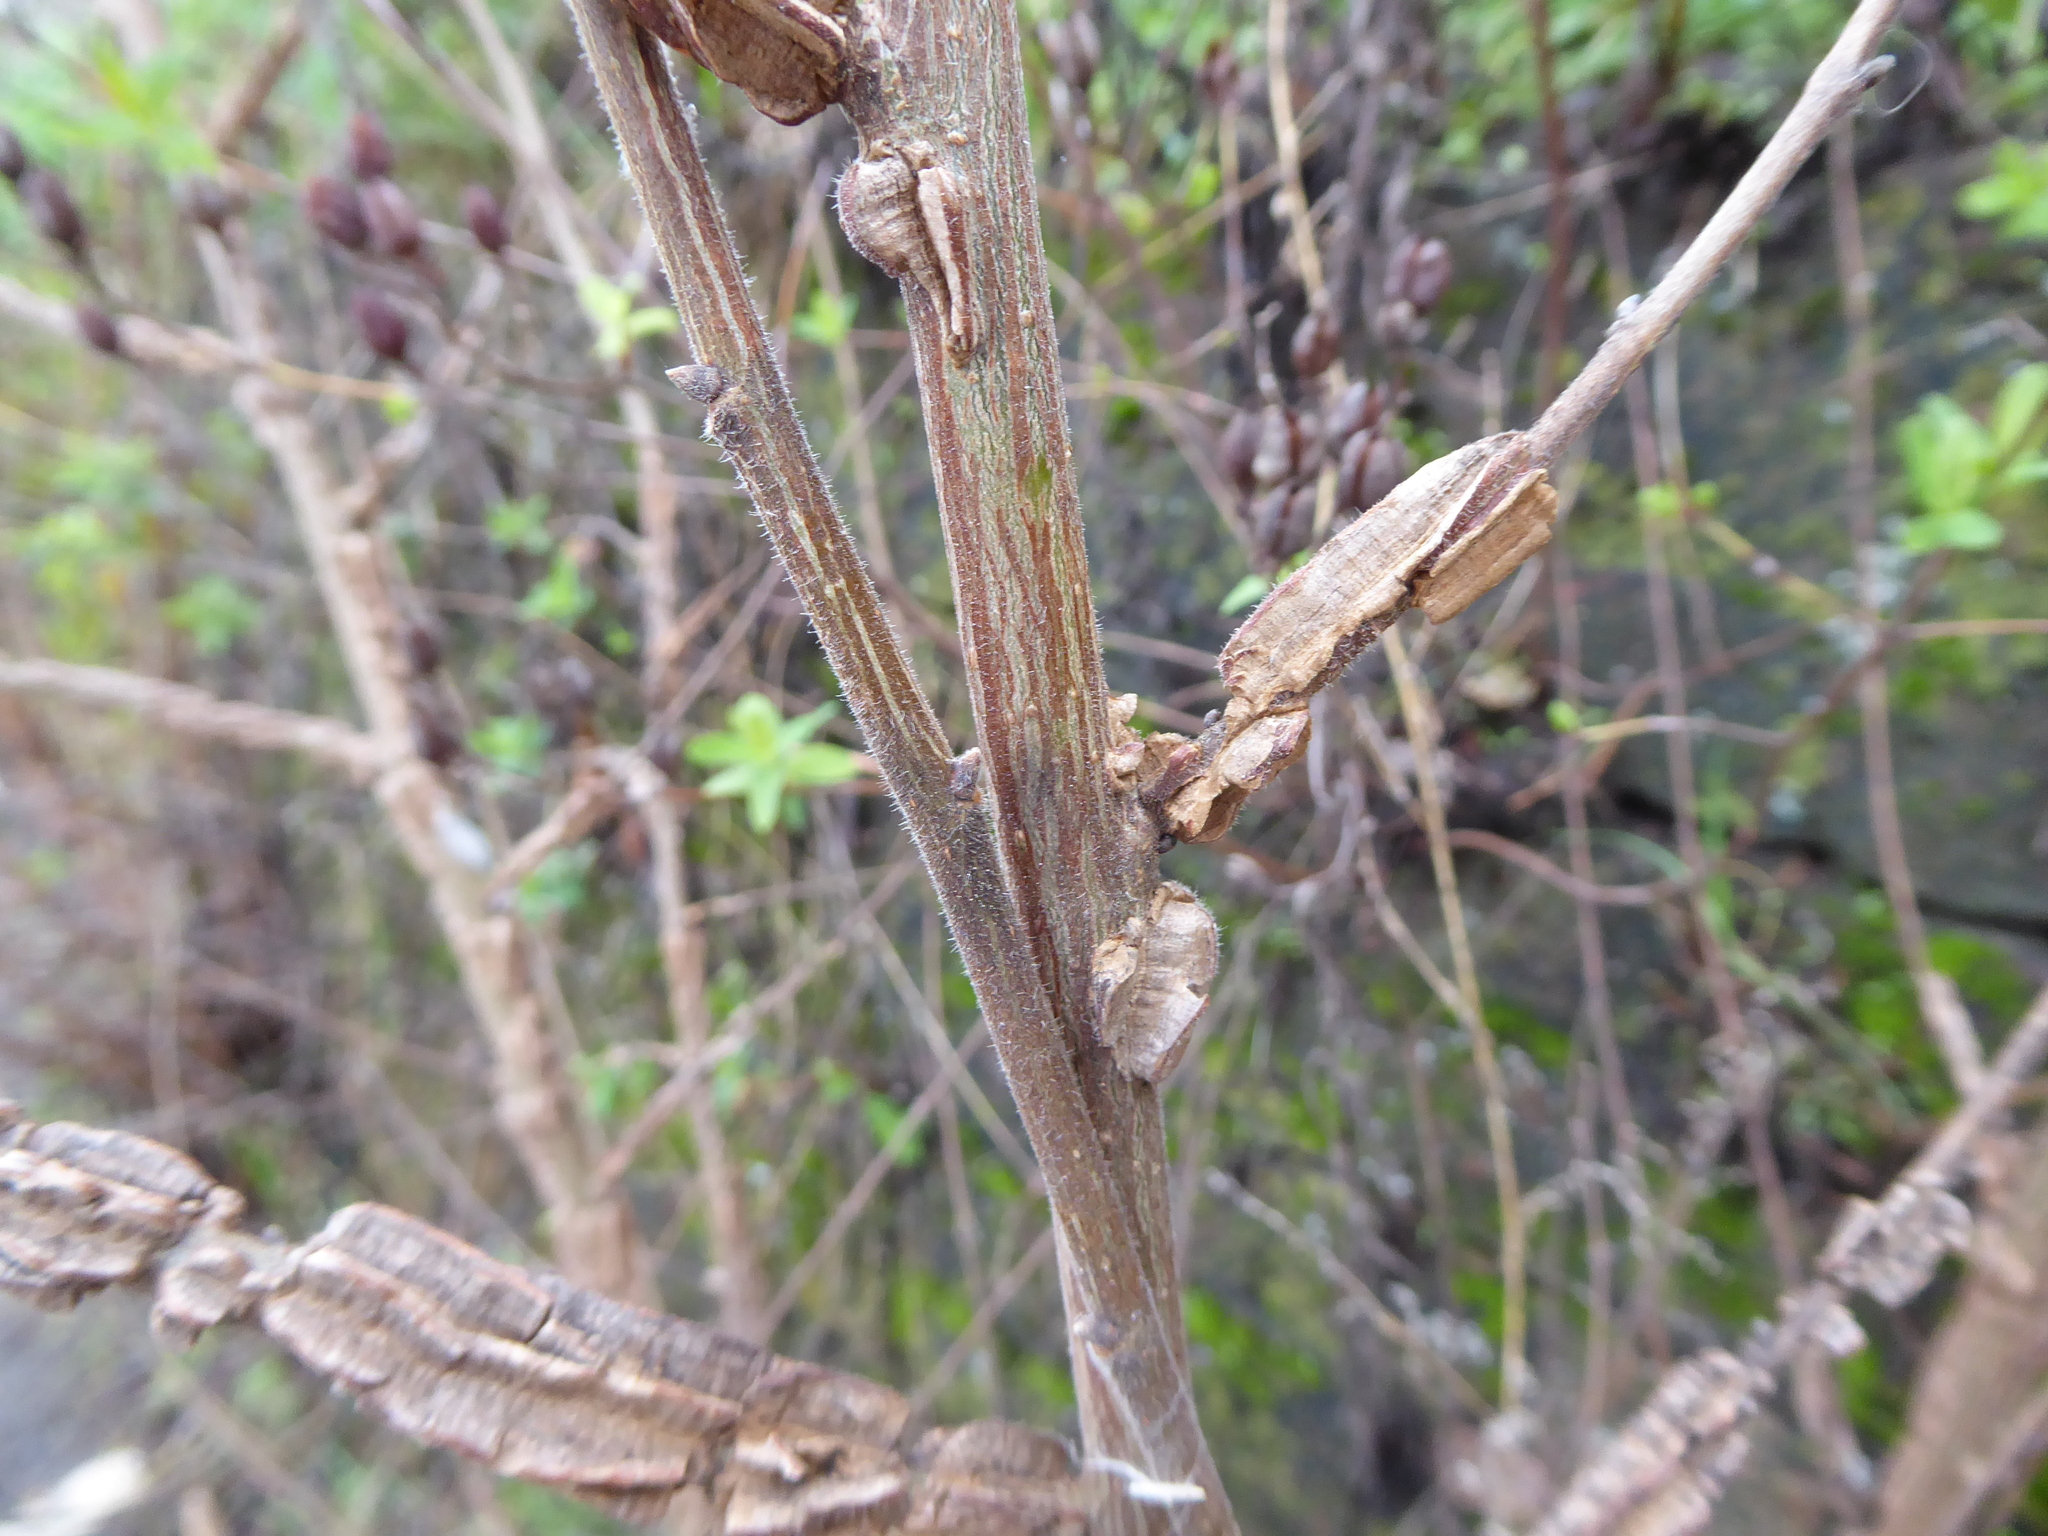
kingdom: Plantae
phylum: Tracheophyta
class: Magnoliopsida
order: Rosales
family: Ulmaceae
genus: Ulmus
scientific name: Ulmus
